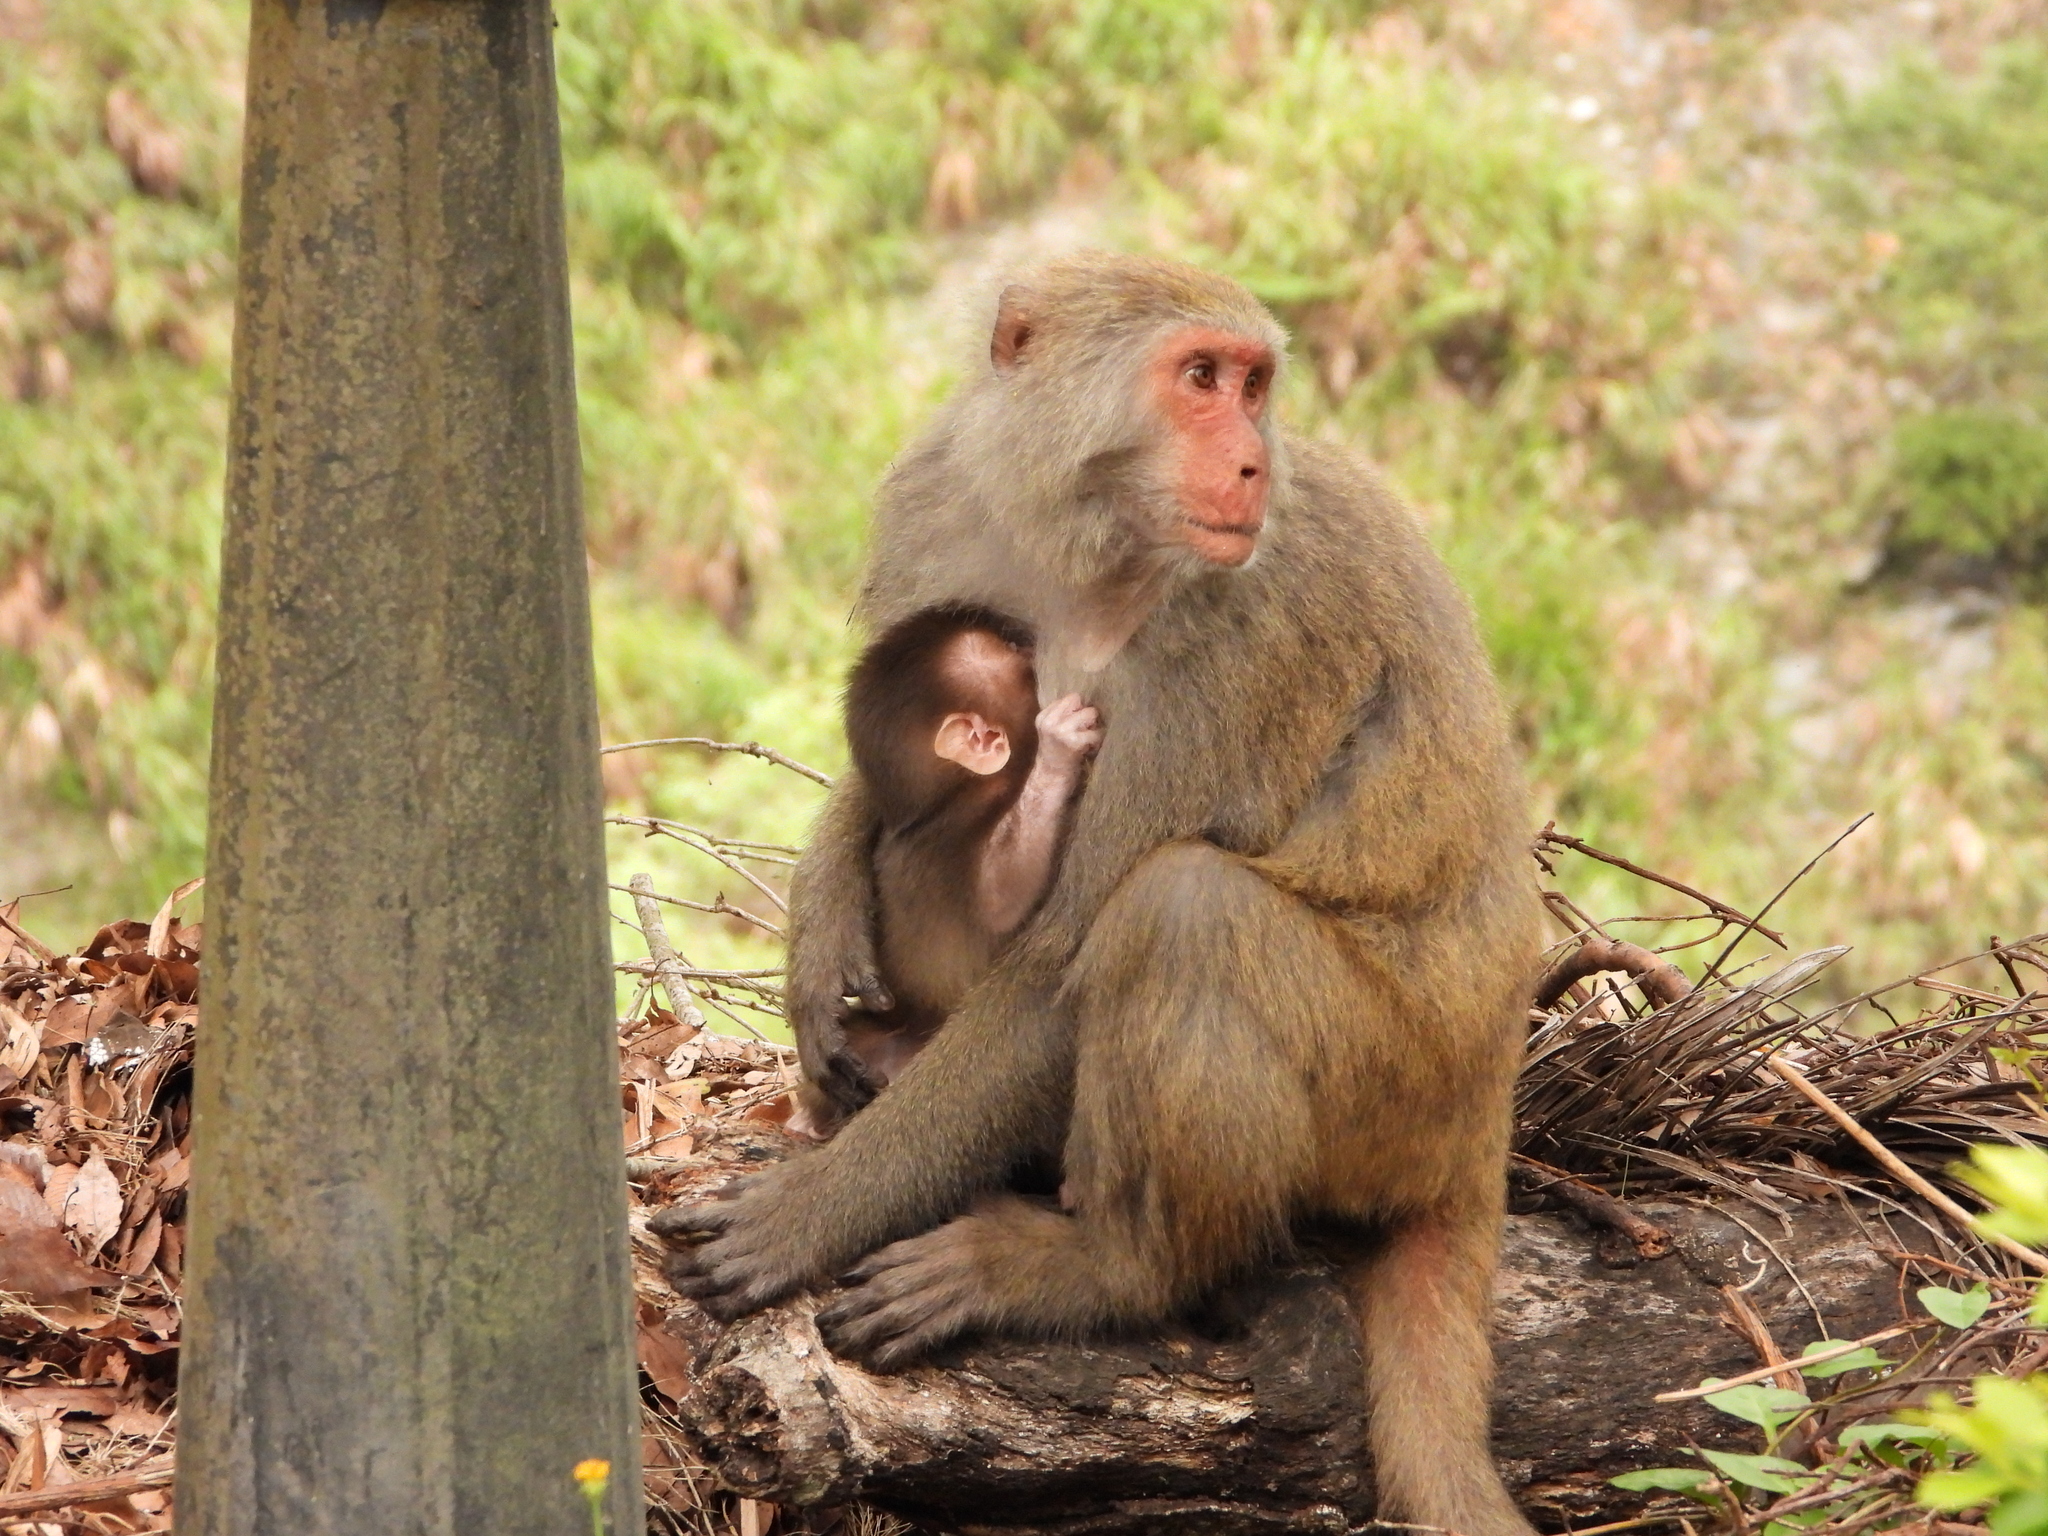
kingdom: Animalia
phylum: Chordata
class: Mammalia
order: Primates
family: Cercopithecidae
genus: Macaca
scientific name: Macaca cyclopis
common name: Formosan rock macaque
